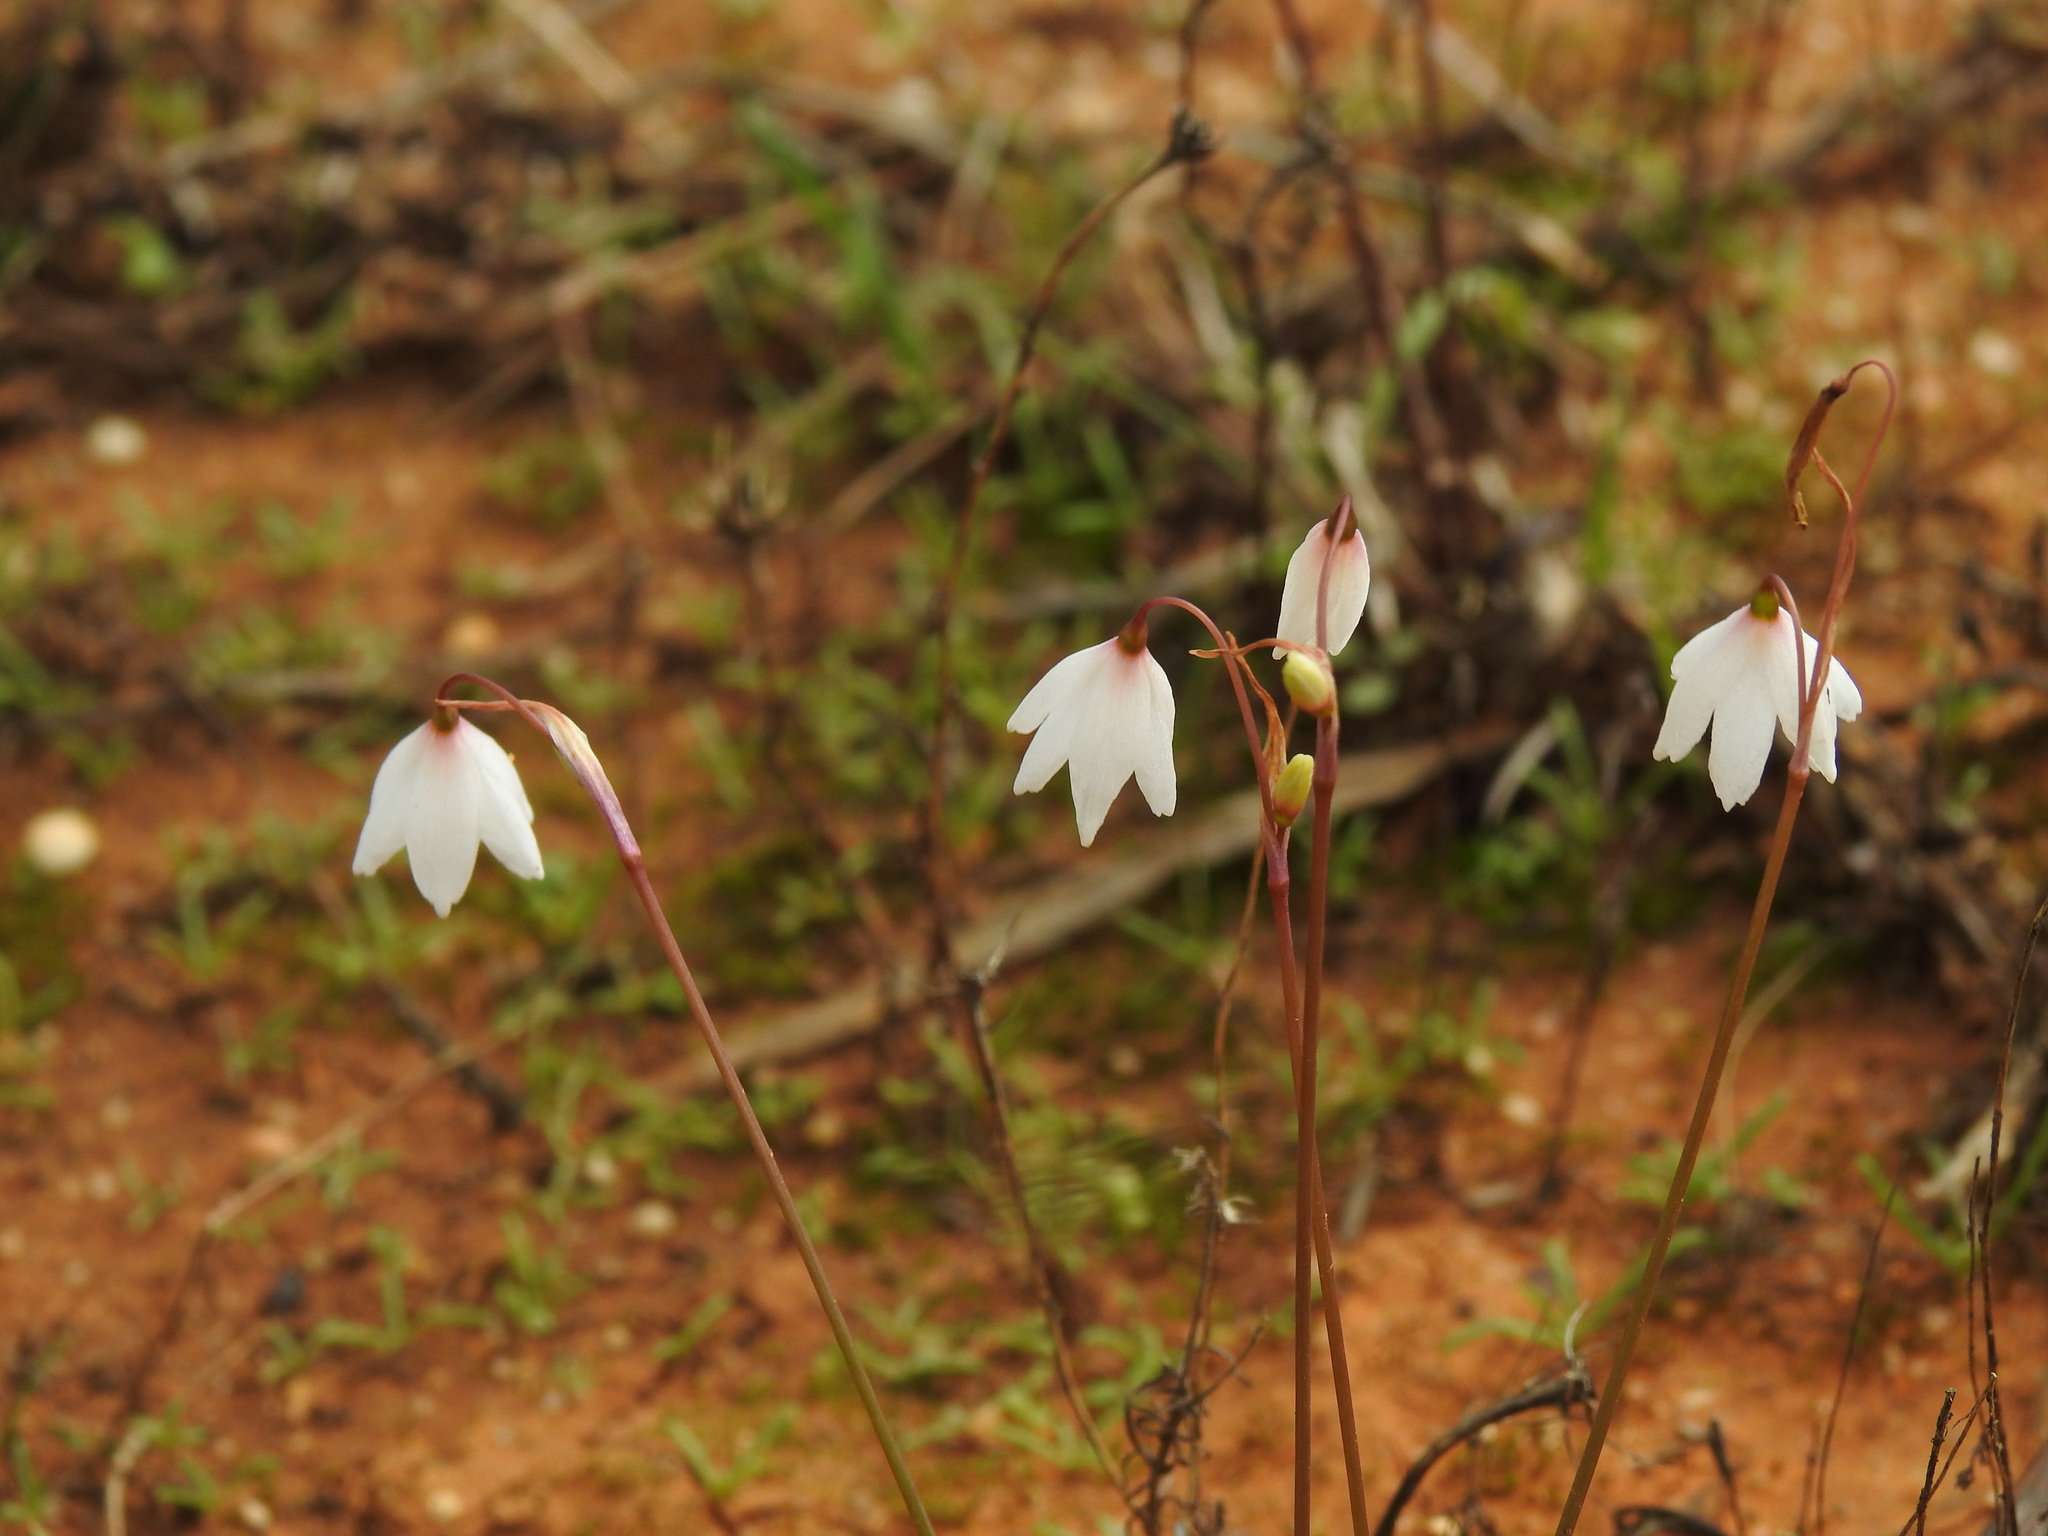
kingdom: Plantae
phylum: Tracheophyta
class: Liliopsida
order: Asparagales
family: Amaryllidaceae
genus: Acis
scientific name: Acis autumnalis
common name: Autumn snowflake
